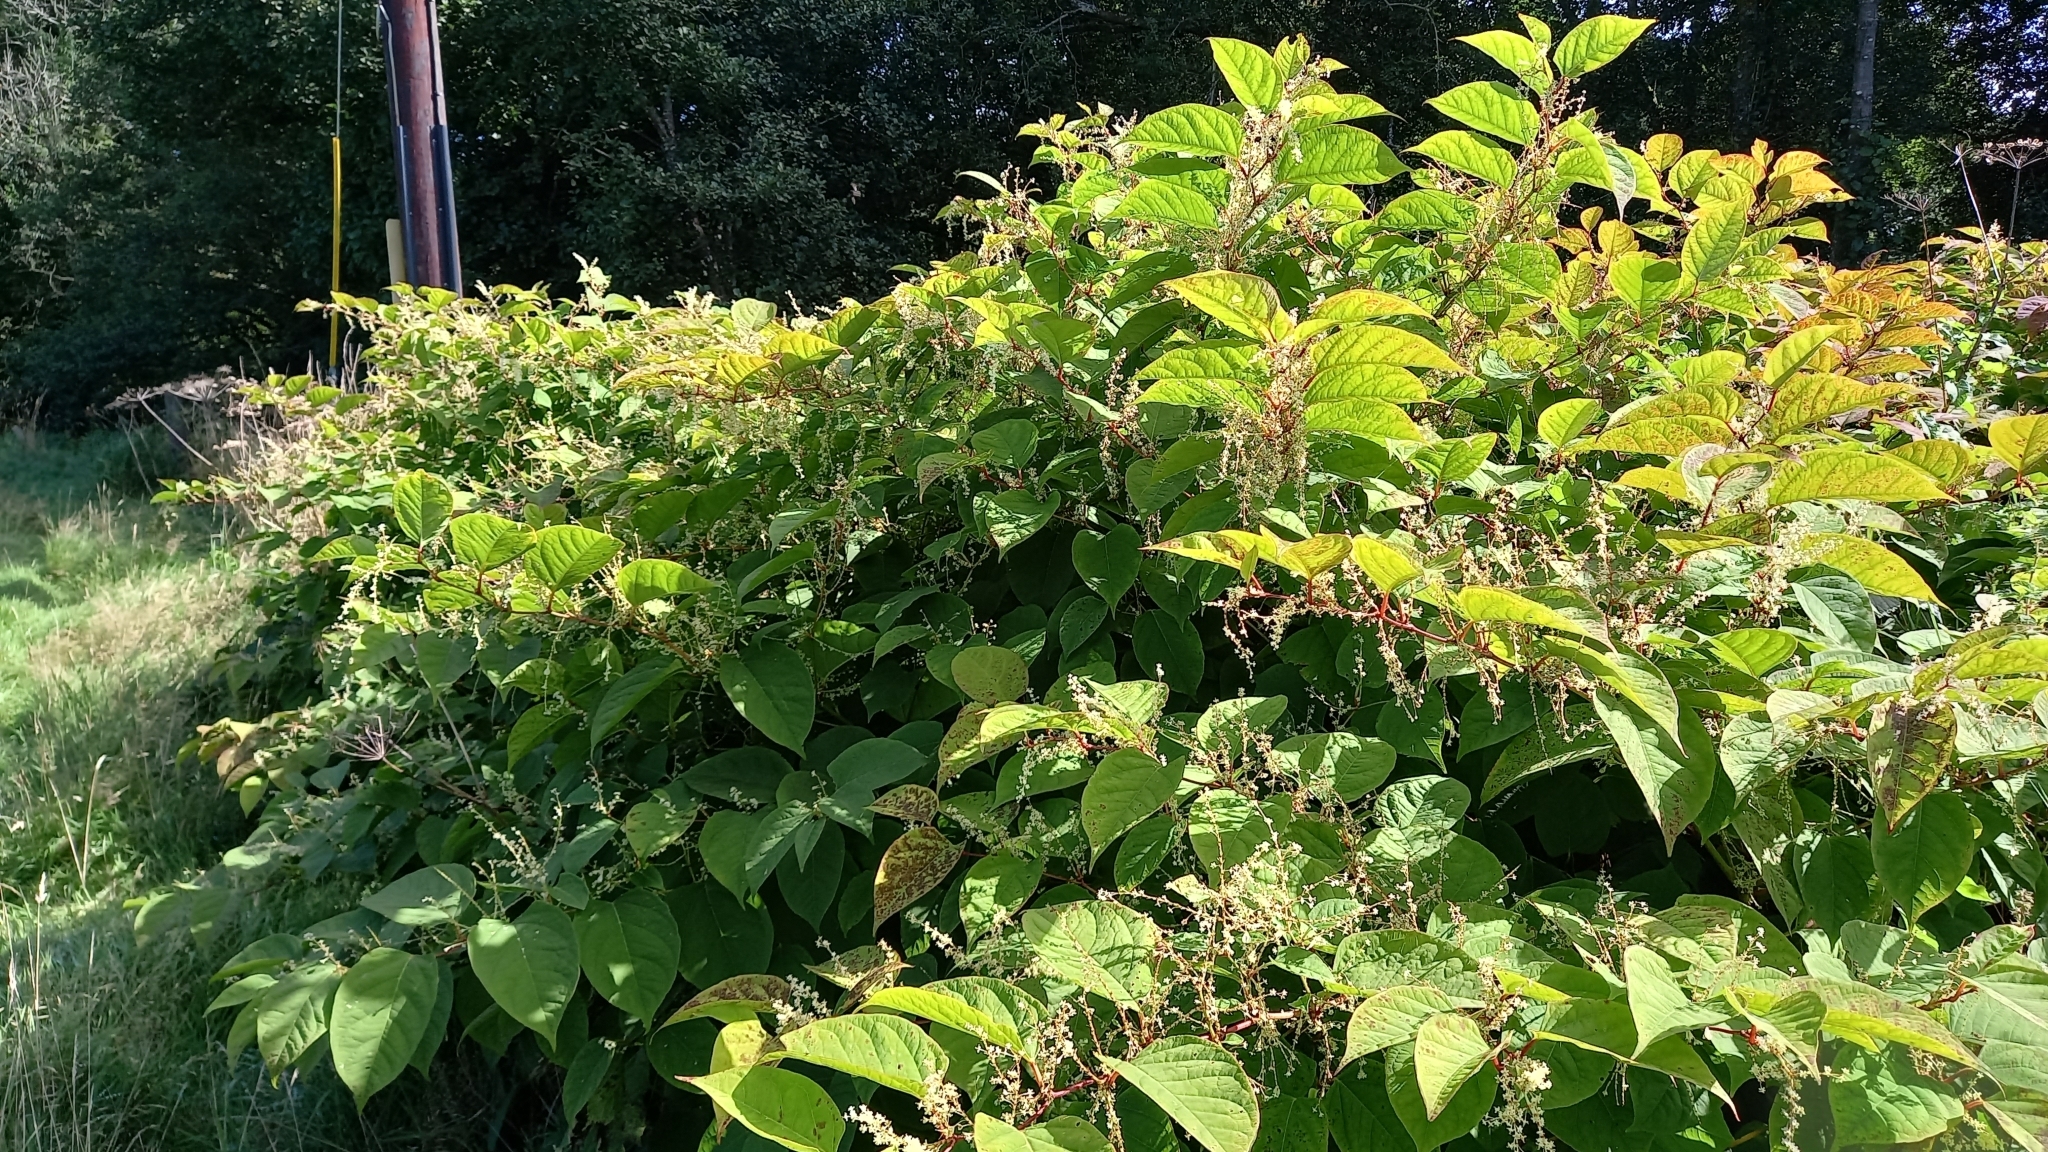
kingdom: Plantae
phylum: Tracheophyta
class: Magnoliopsida
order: Caryophyllales
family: Polygonaceae
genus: Reynoutria
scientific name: Reynoutria japonica
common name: Japanese knotweed
